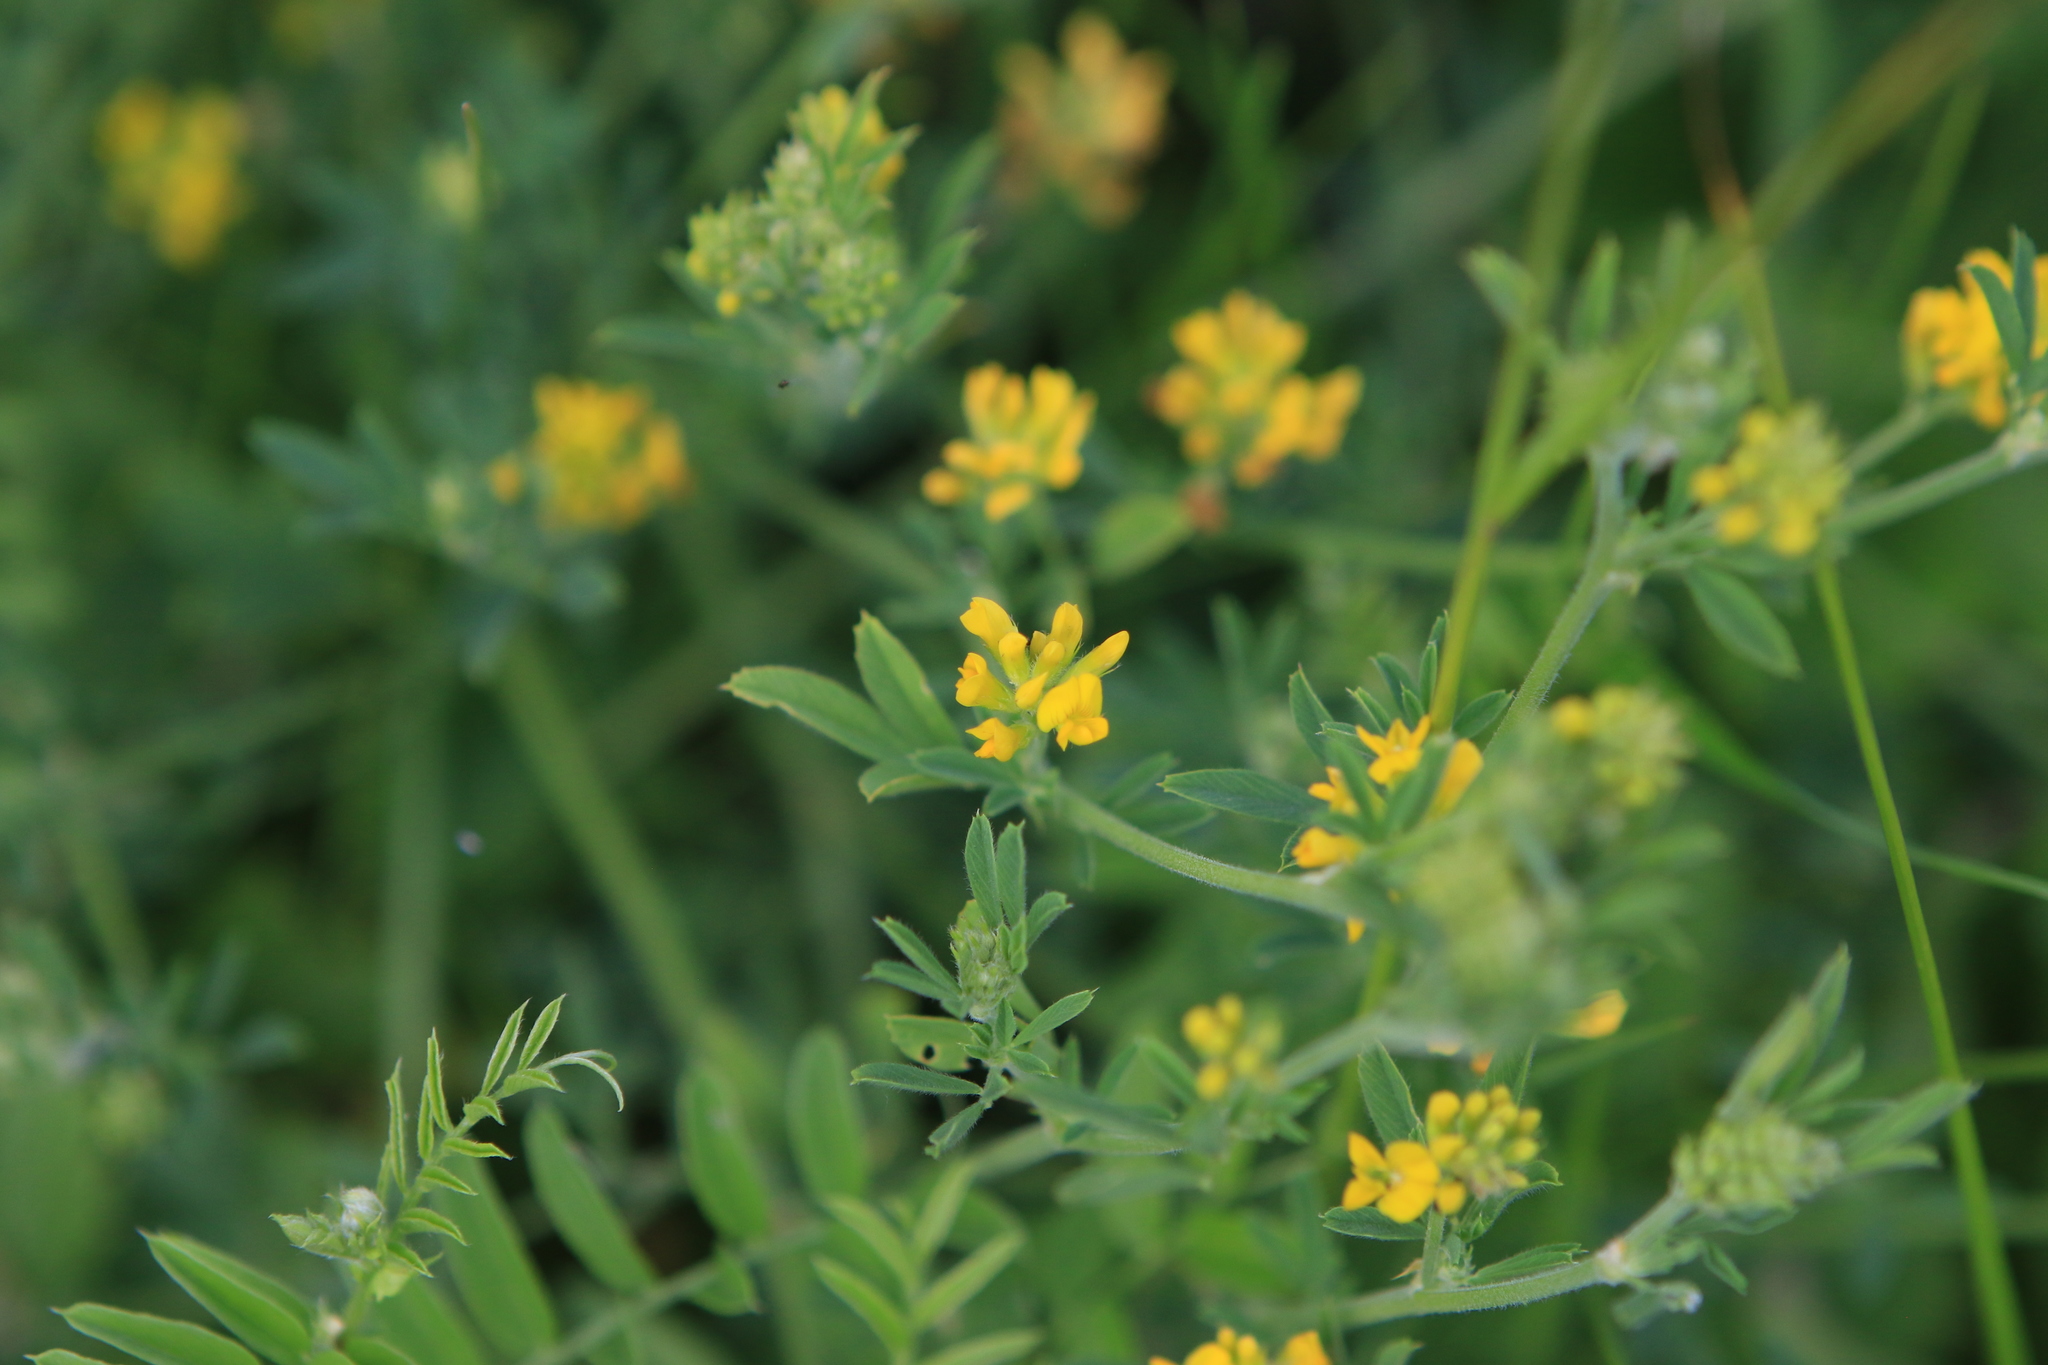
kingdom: Plantae
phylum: Tracheophyta
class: Magnoliopsida
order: Fabales
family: Fabaceae
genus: Medicago
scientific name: Medicago falcata
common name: Sickle medick
